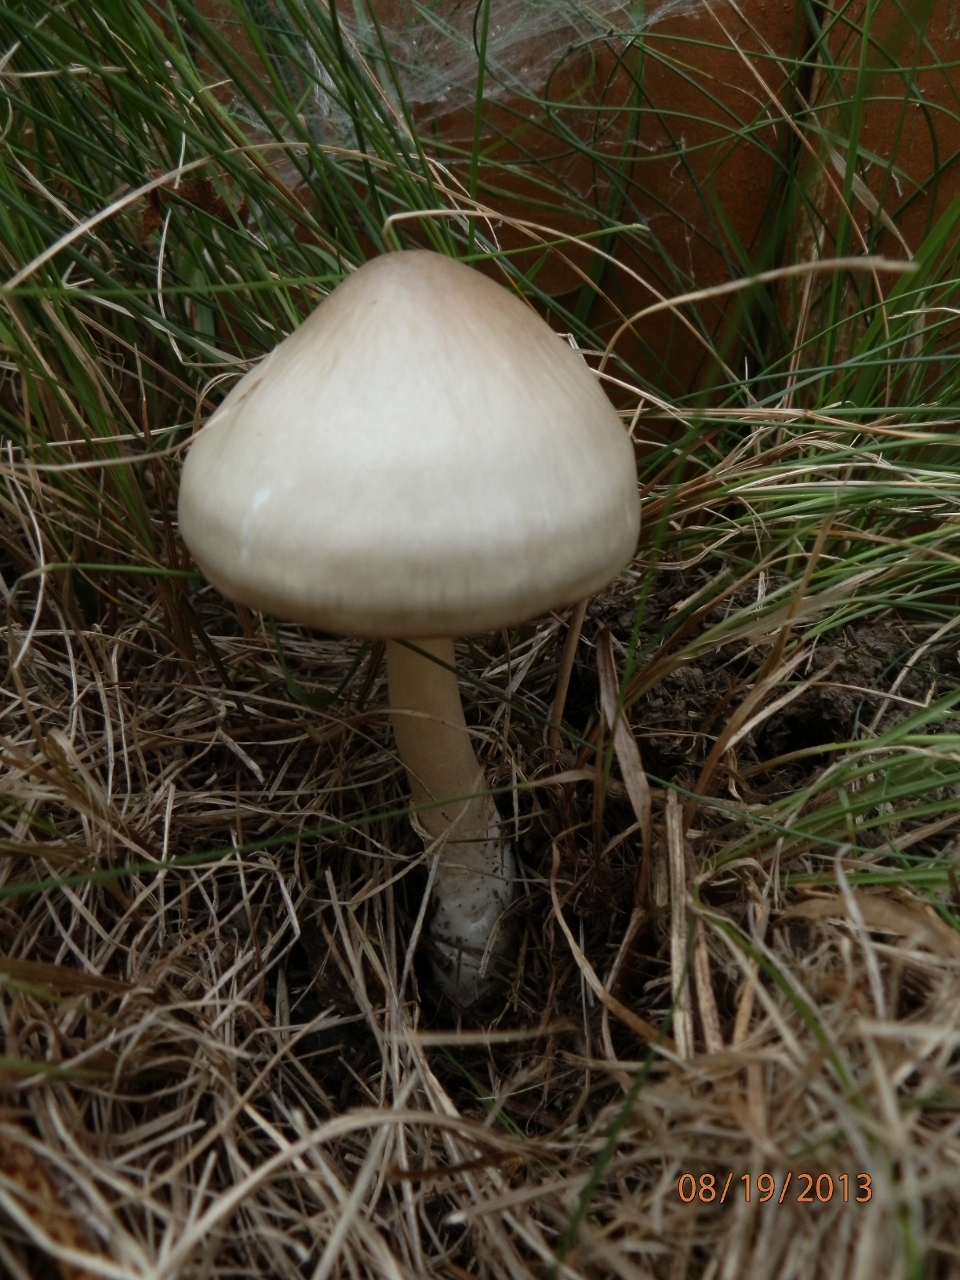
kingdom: Fungi
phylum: Basidiomycota
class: Agaricomycetes
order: Agaricales
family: Pluteaceae
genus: Volvopluteus
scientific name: Volvopluteus gloiocephalus
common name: Stubble rosegill
